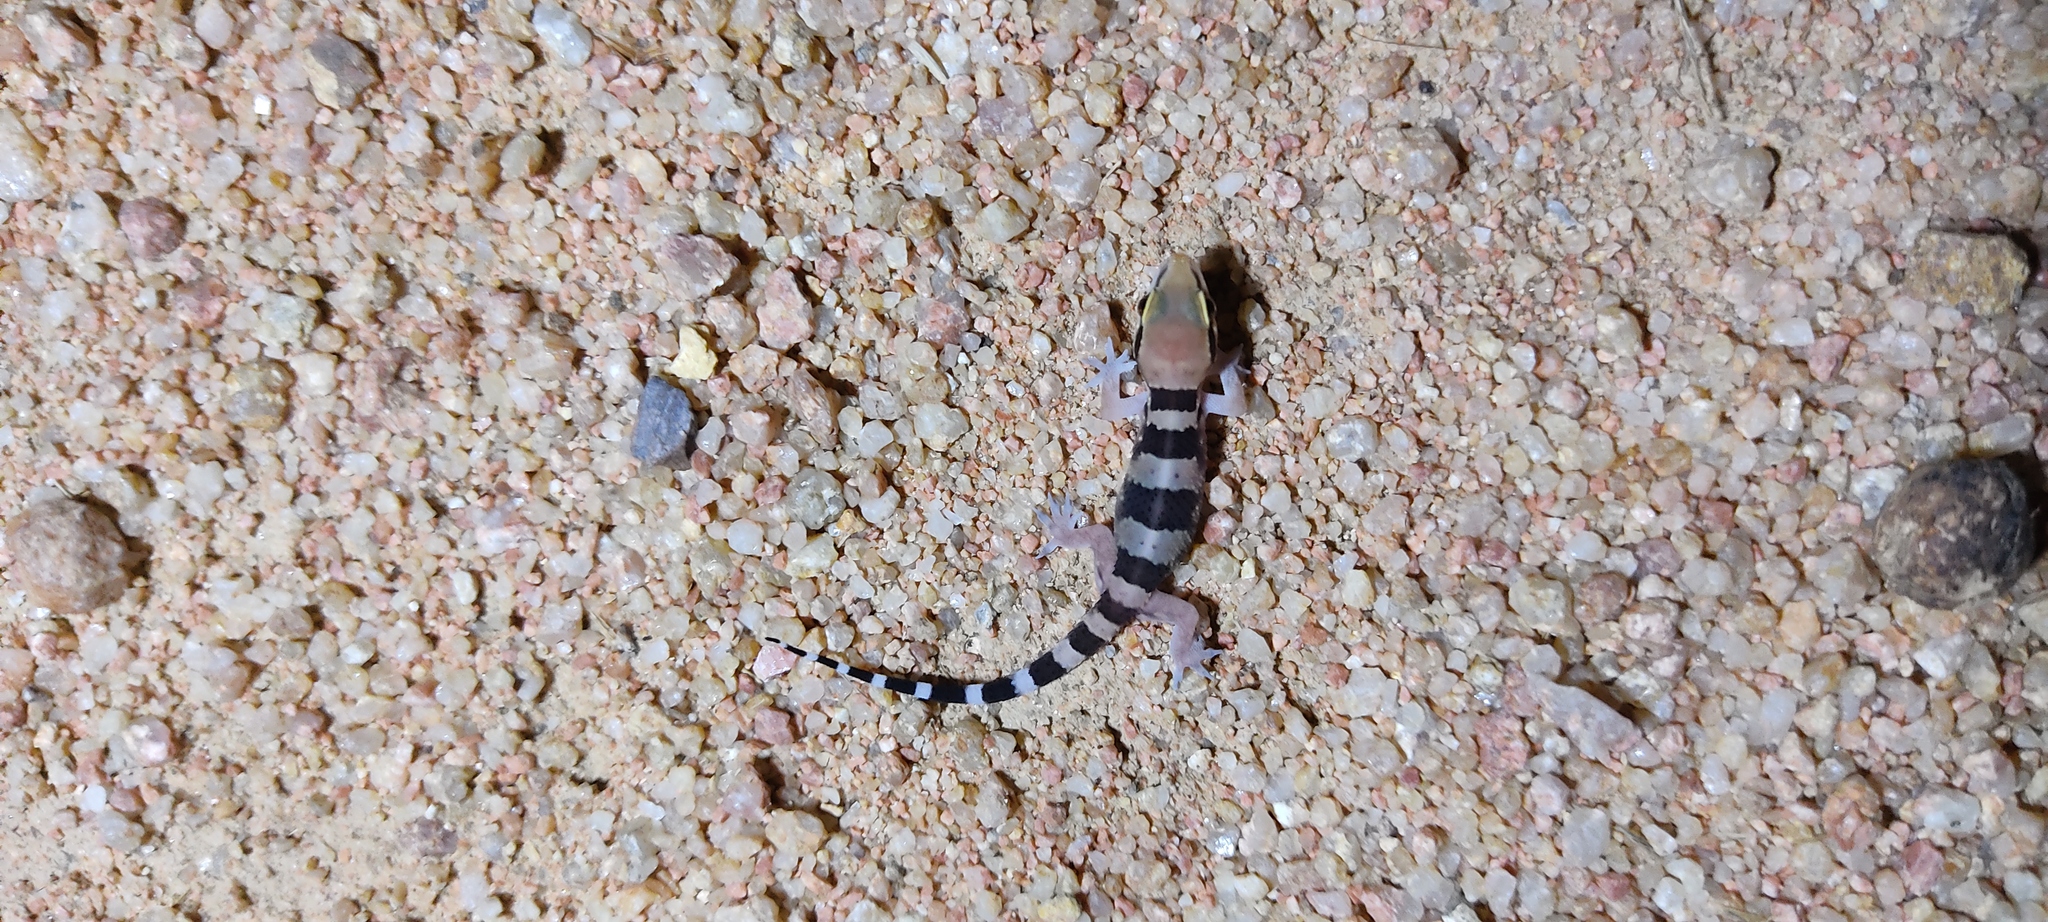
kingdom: Animalia
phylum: Chordata
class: Squamata
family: Gekkonidae
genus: Hemidactylus
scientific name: Hemidactylus whitakeri
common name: Whitaker’s termite hill gecko
